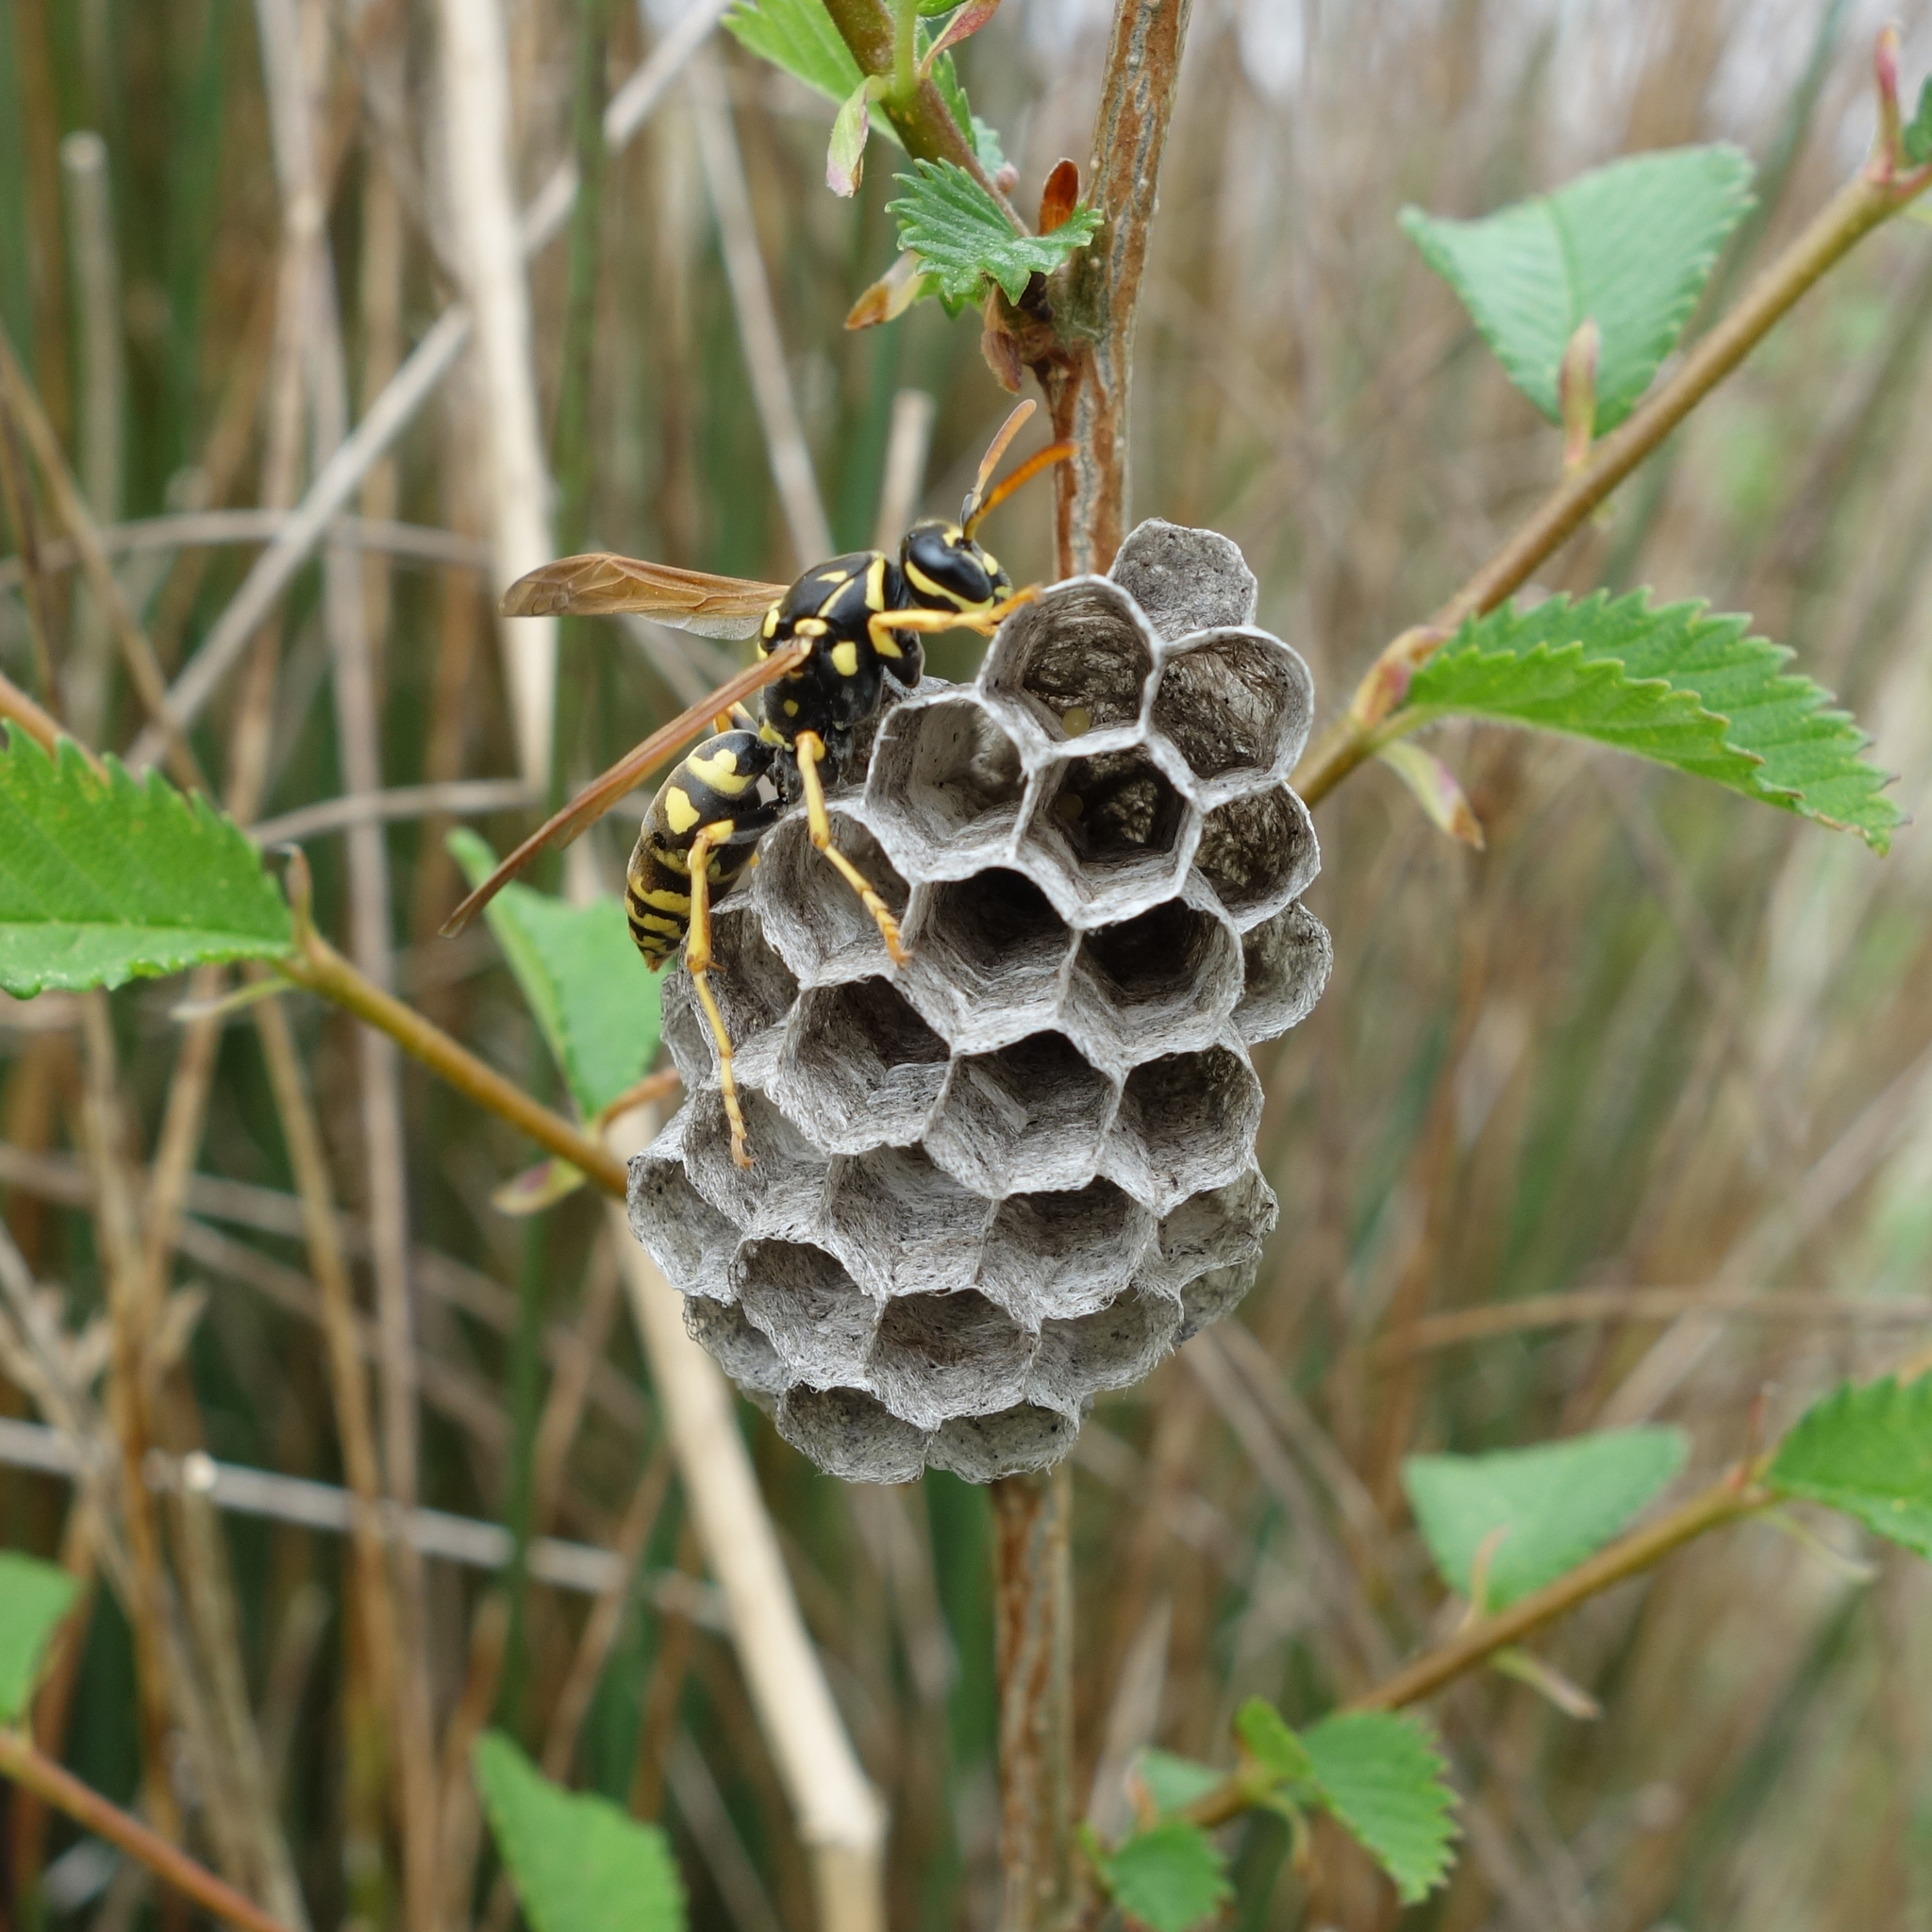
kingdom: Animalia
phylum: Arthropoda
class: Insecta
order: Hymenoptera
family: Eumenidae
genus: Polistes
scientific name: Polistes nimpha
